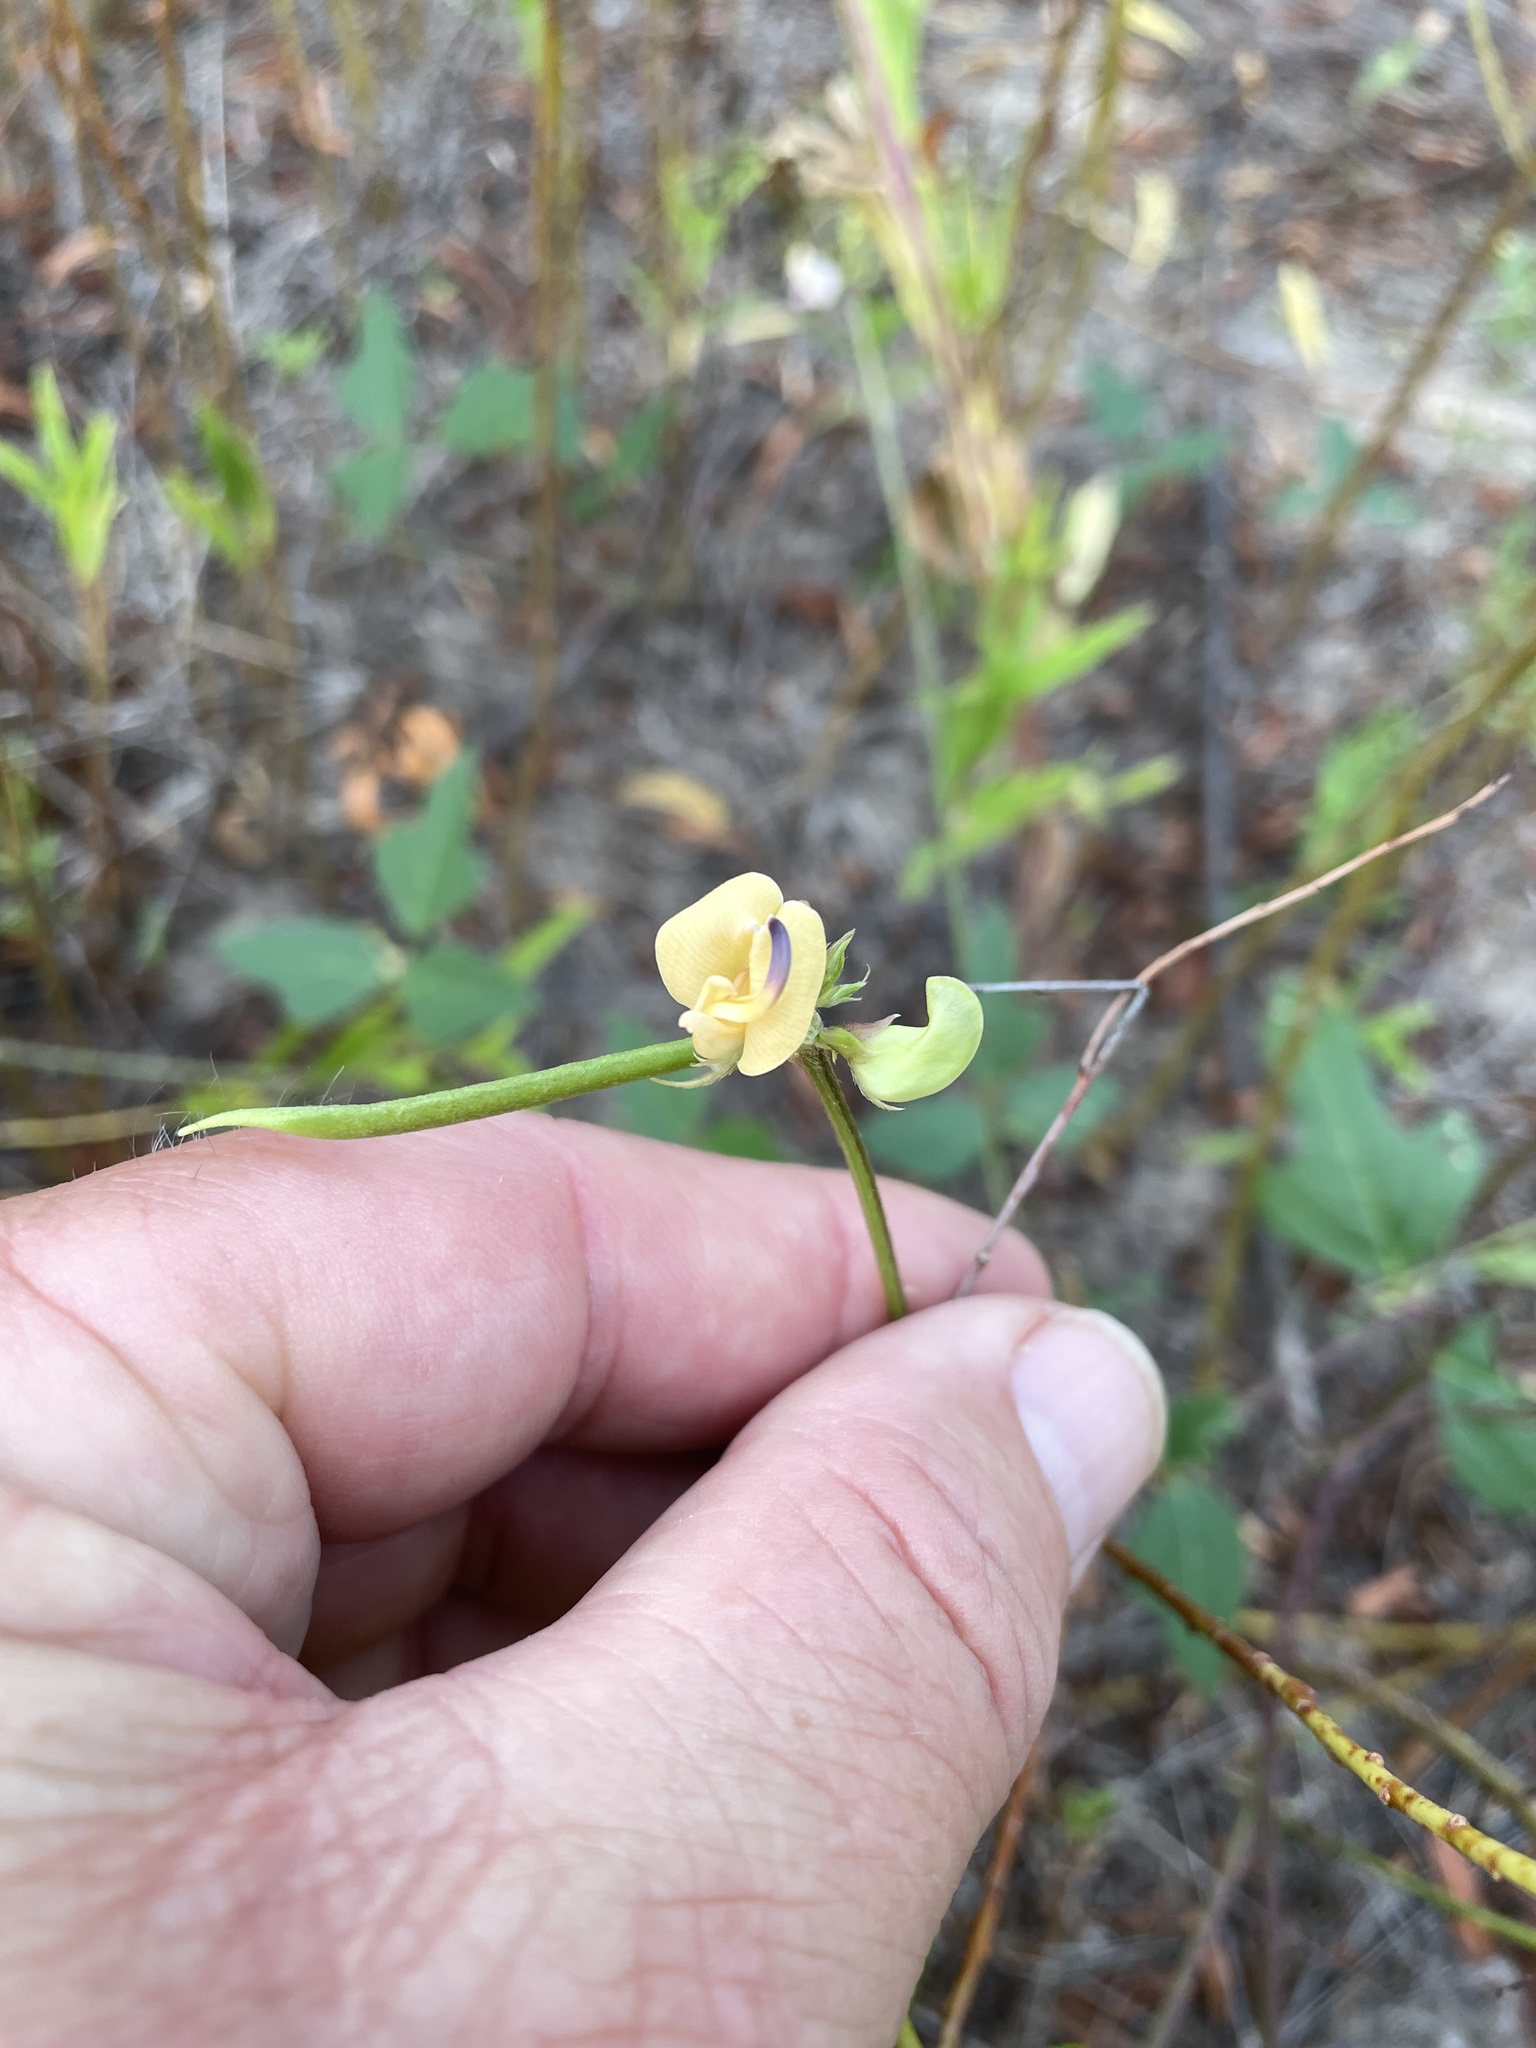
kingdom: Plantae
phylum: Tracheophyta
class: Magnoliopsida
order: Fabales
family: Fabaceae
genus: Strophostyles
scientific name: Strophostyles helvola
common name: Trailing wild bean
